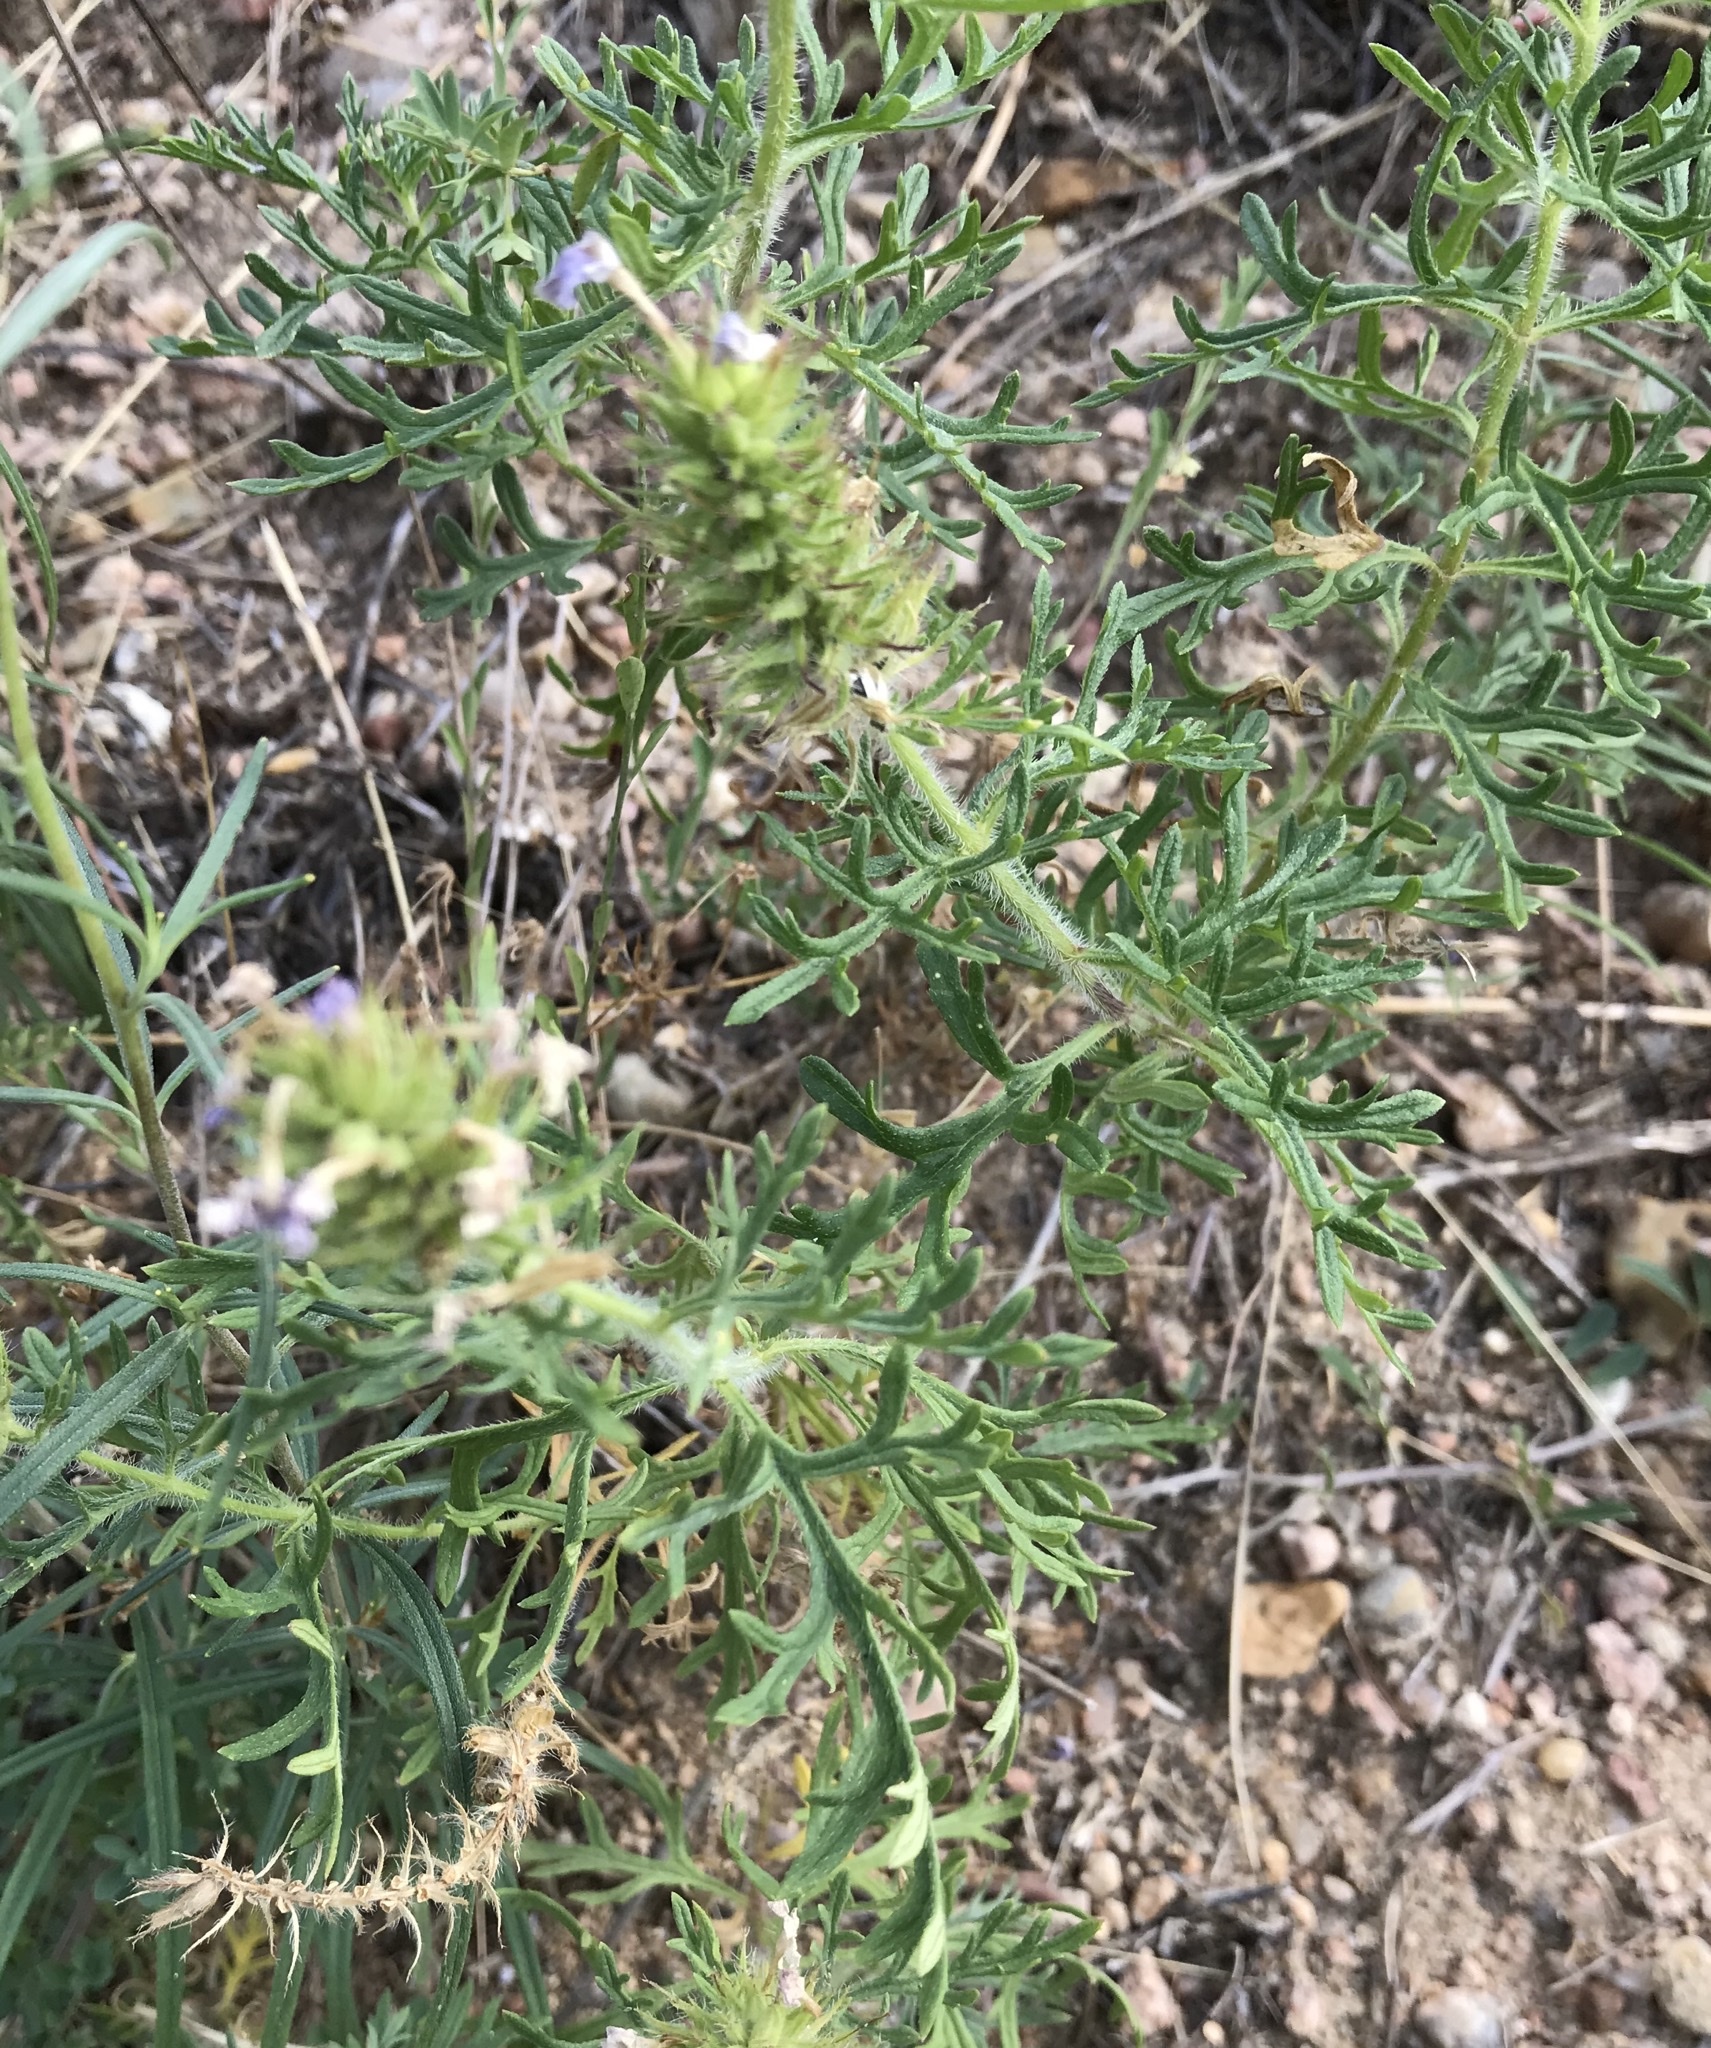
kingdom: Plantae
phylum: Tracheophyta
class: Magnoliopsida
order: Lamiales
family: Verbenaceae
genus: Verbena
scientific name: Verbena bipinnatifida
